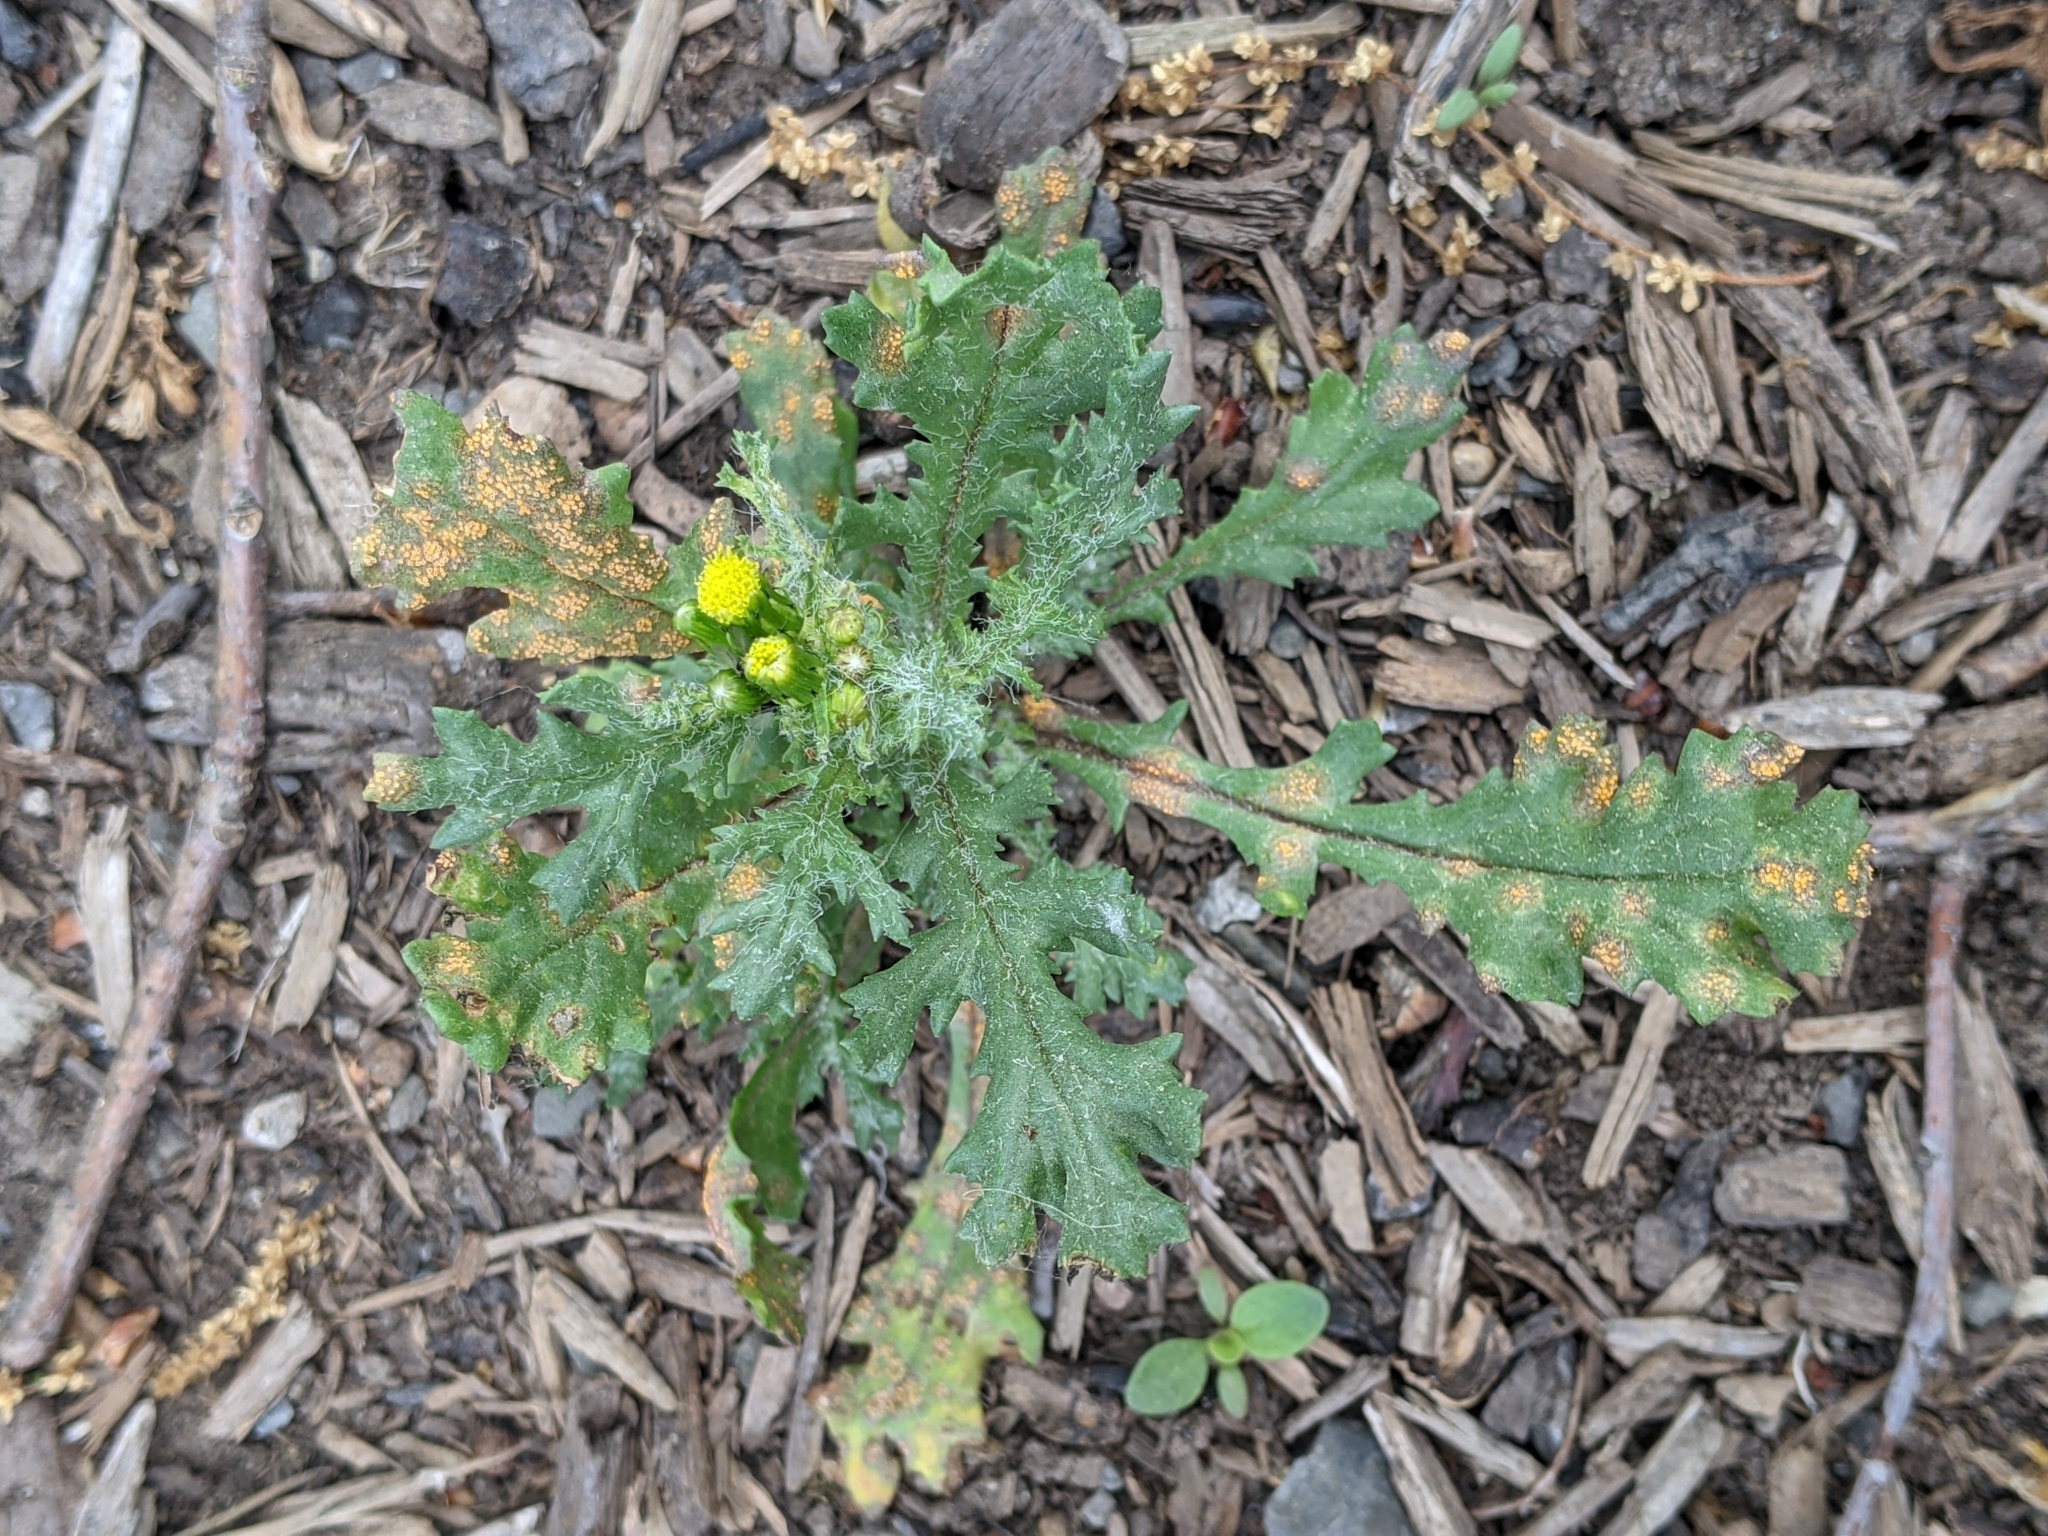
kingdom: Fungi
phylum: Basidiomycota
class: Pucciniomycetes
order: Pucciniales
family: Pucciniaceae
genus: Puccinia
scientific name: Puccinia lagenophorae
